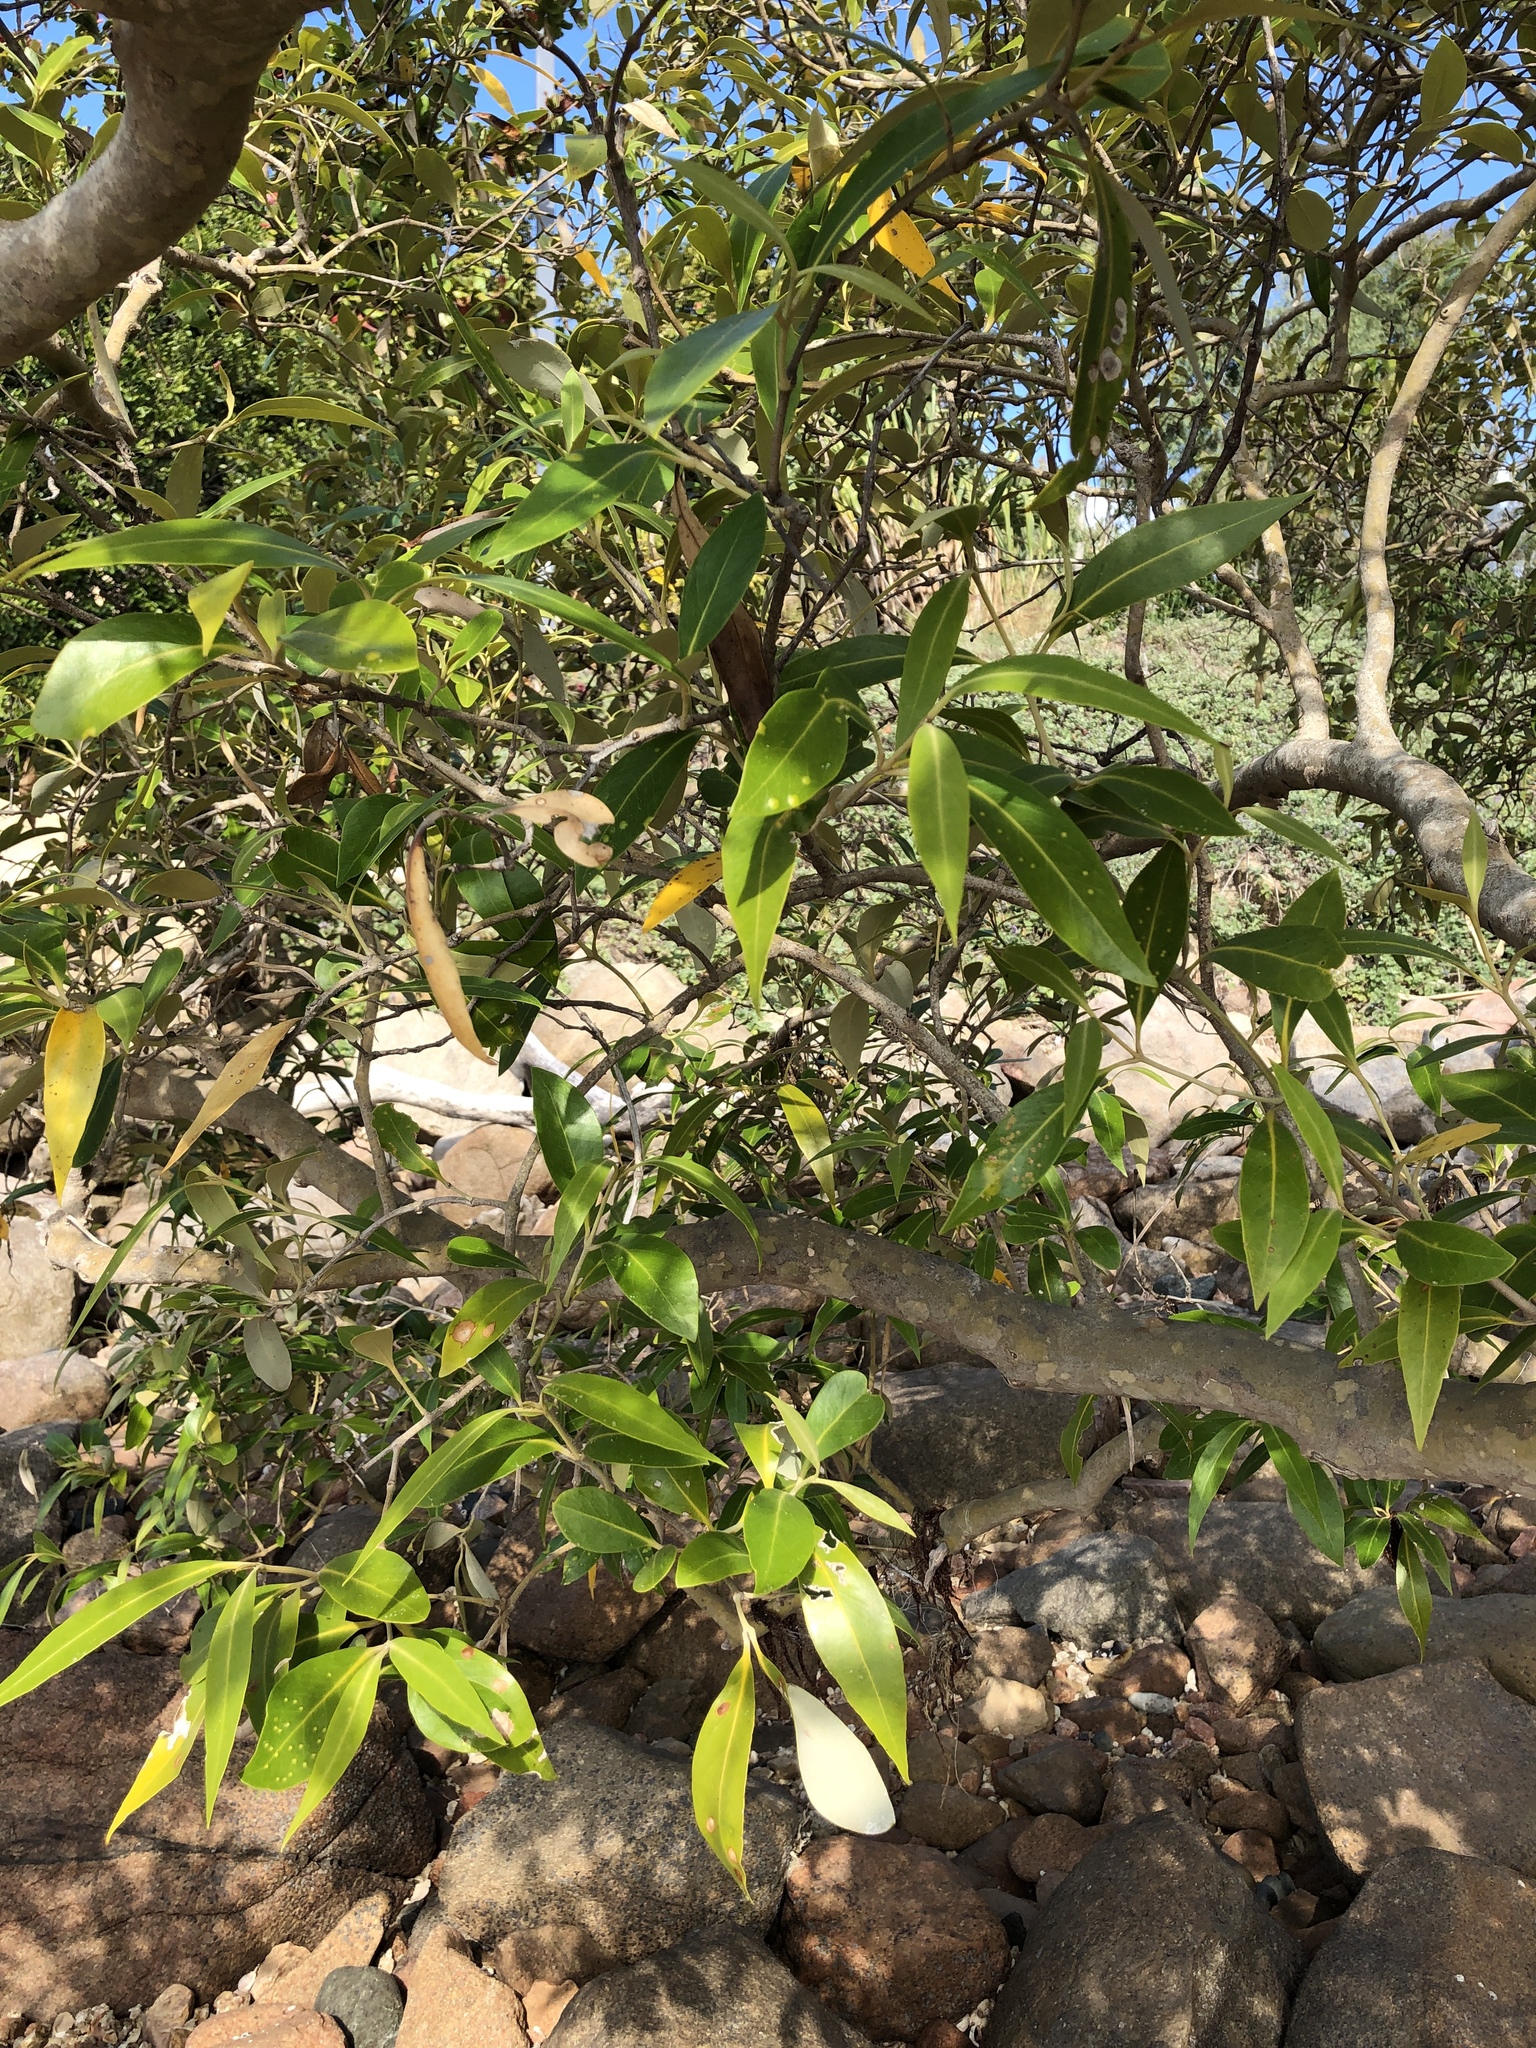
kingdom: Plantae
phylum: Tracheophyta
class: Magnoliopsida
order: Lamiales
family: Acanthaceae
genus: Avicennia
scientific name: Avicennia marina
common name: Gray mangrove
